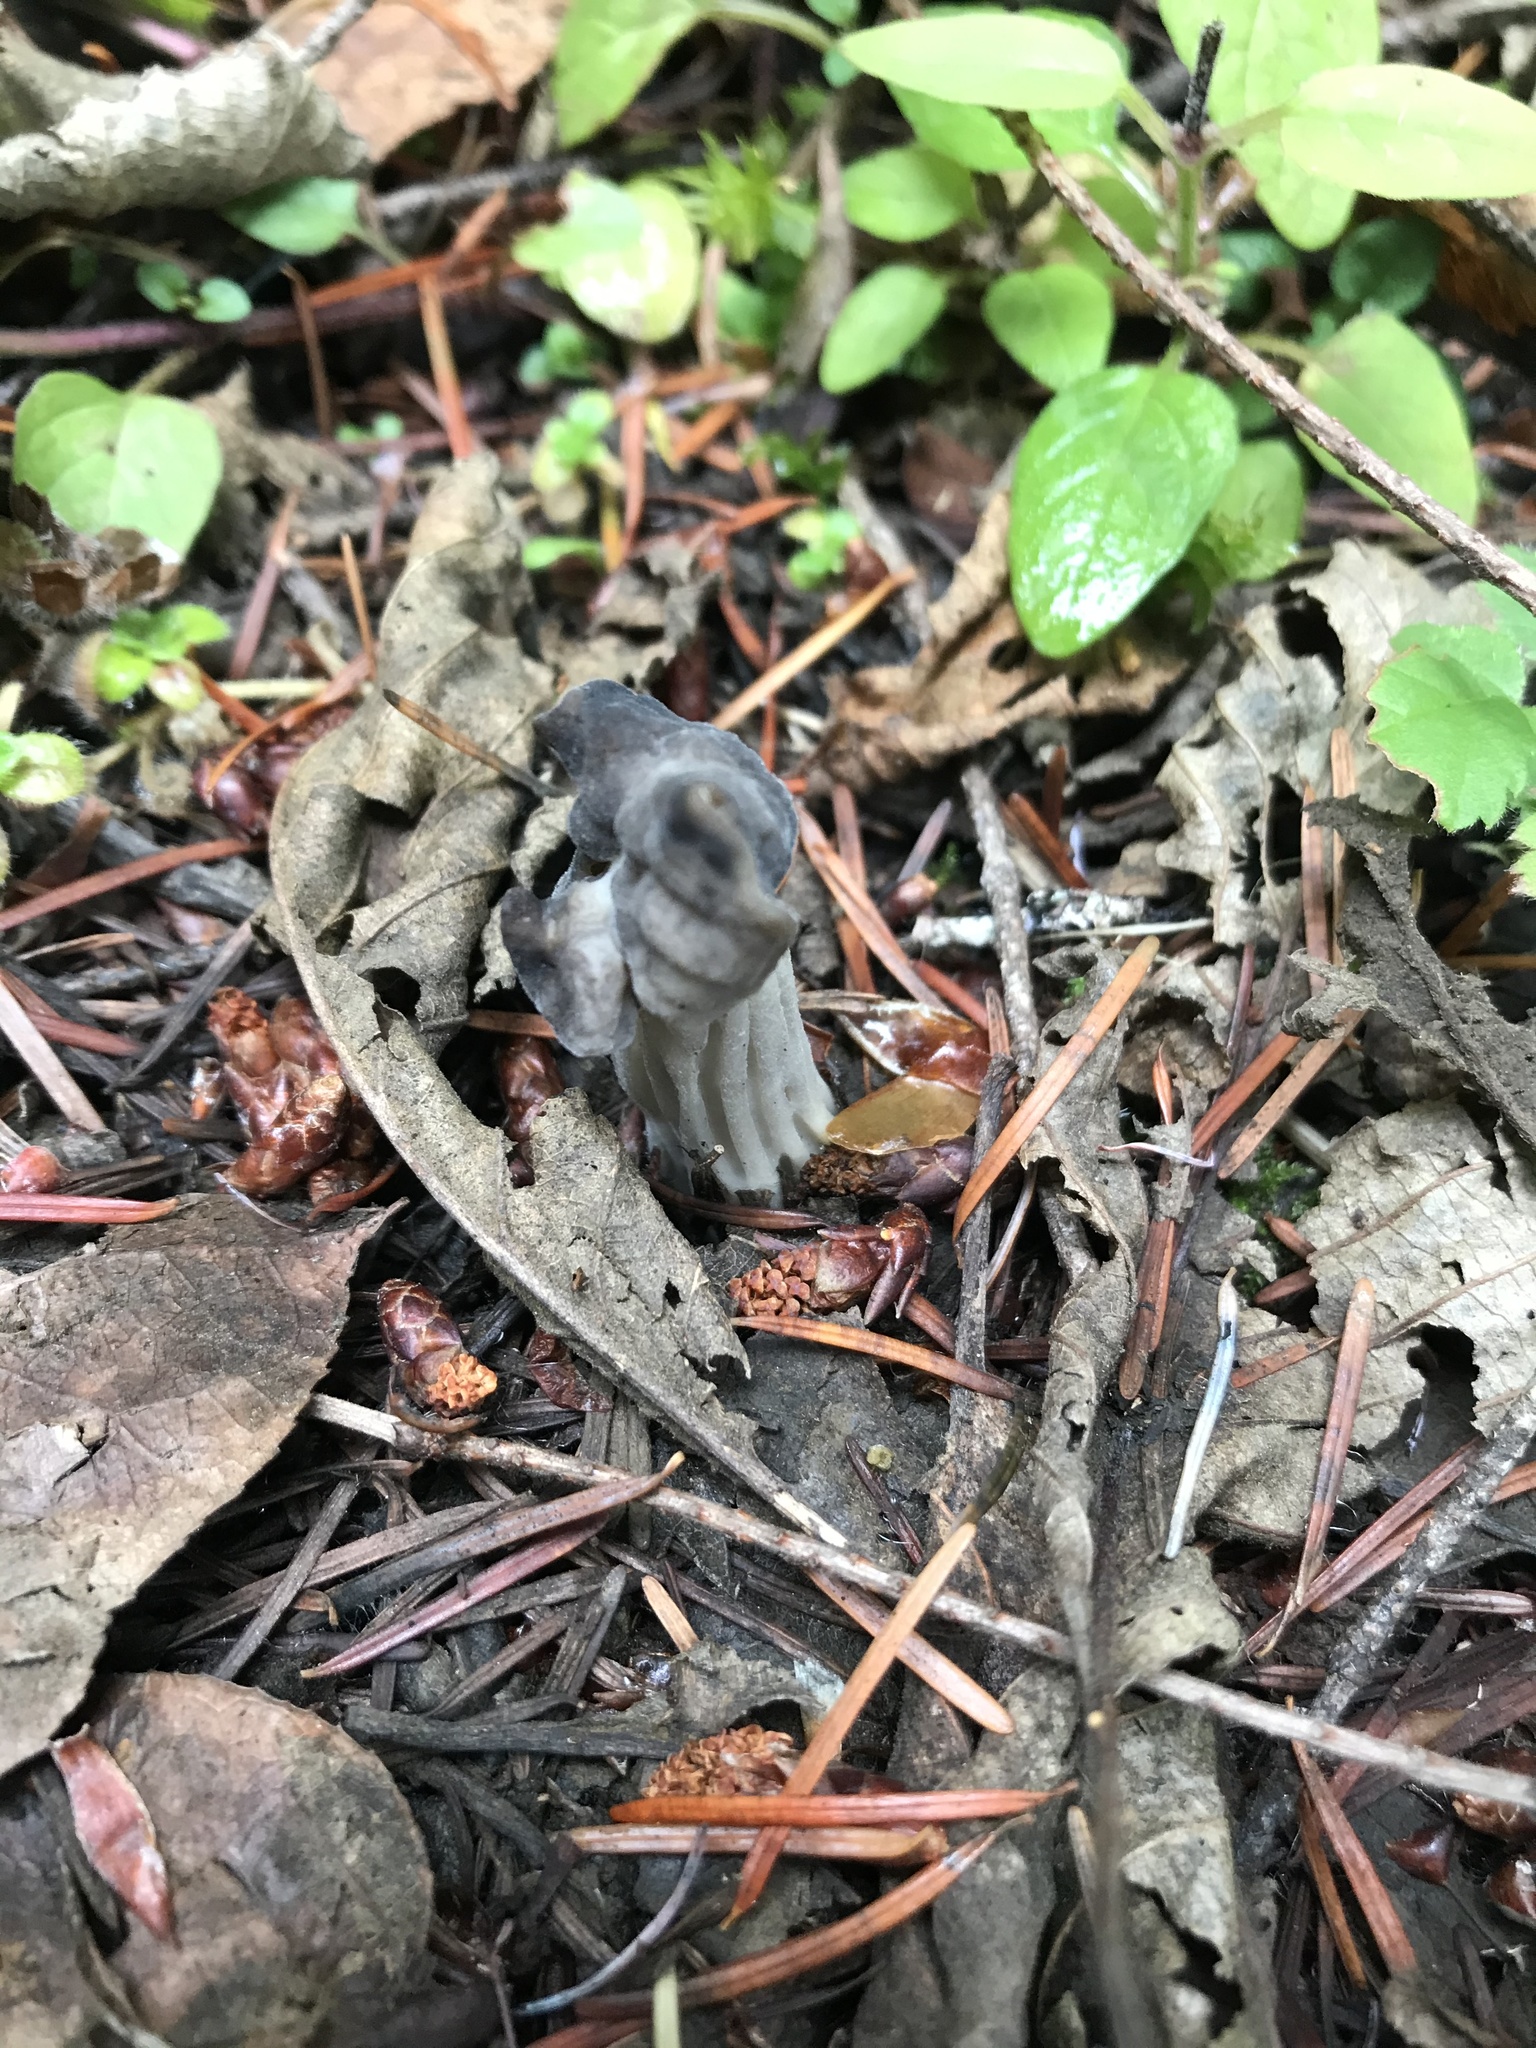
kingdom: Fungi
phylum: Ascomycota
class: Pezizomycetes
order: Pezizales
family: Helvellaceae
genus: Helvella
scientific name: Helvella vespertina
